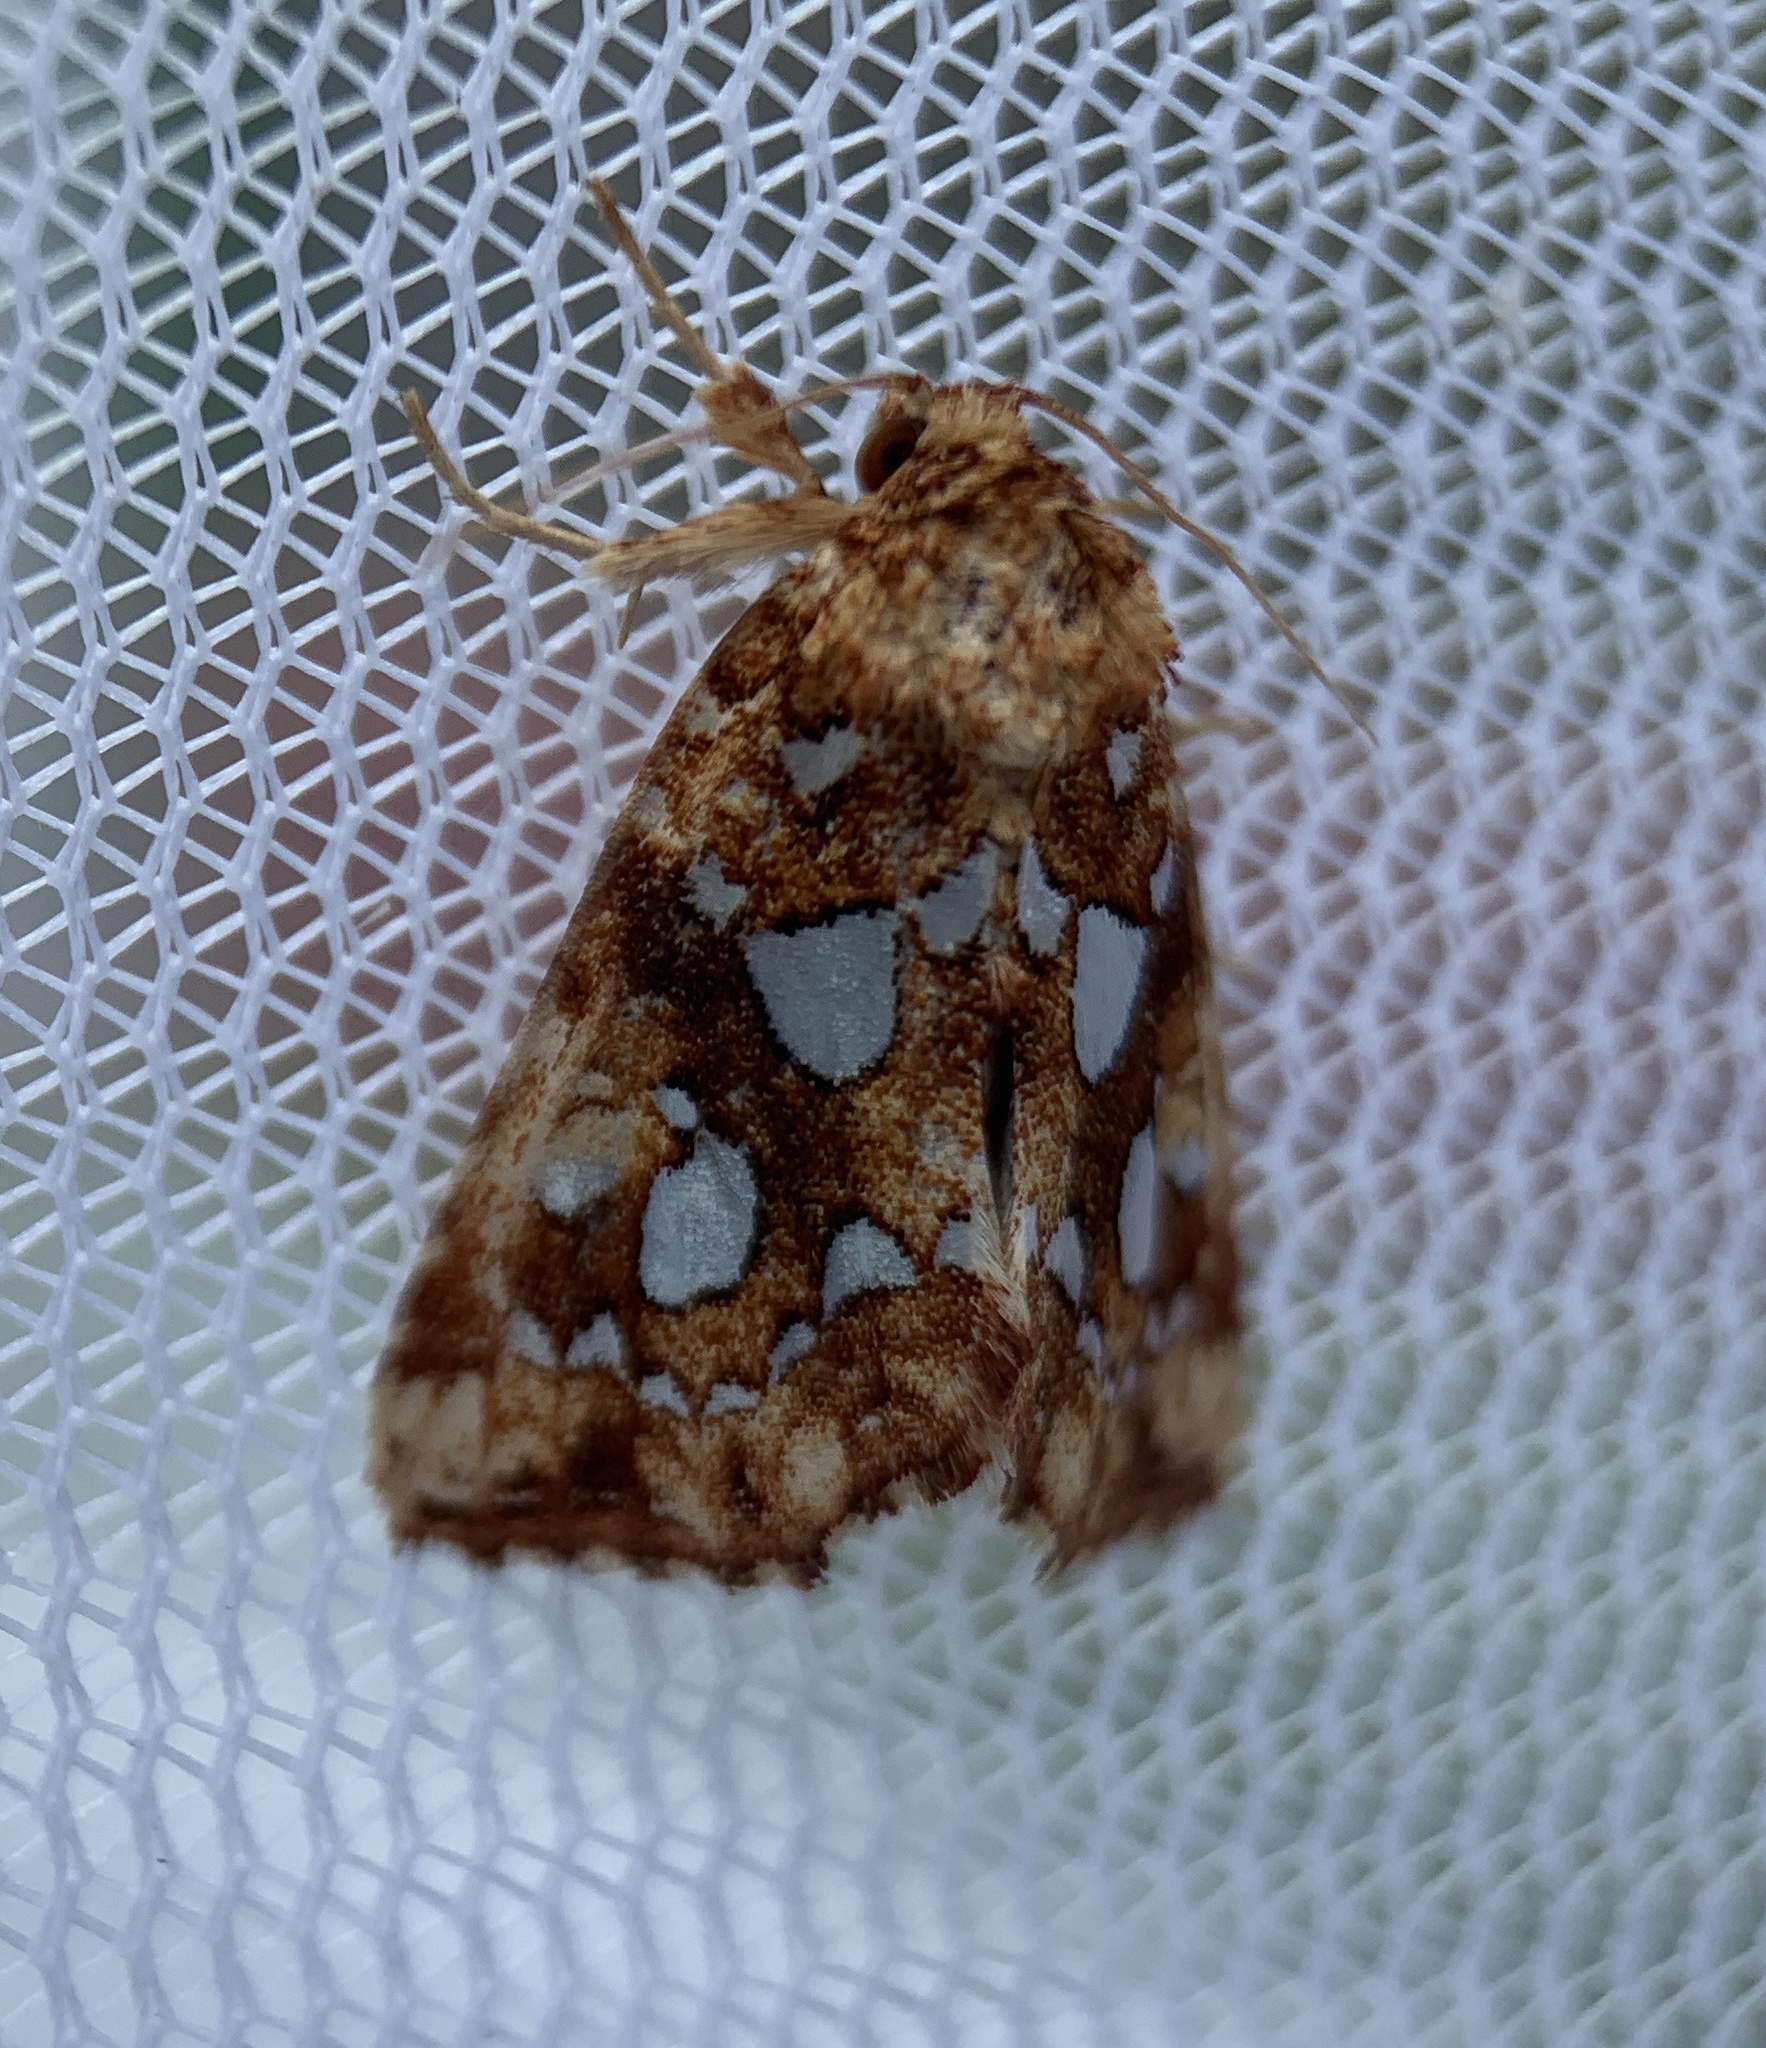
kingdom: Animalia
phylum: Arthropoda
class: Insecta
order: Lepidoptera
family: Noctuidae
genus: Callopistria
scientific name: Callopistria cordata
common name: Silver-spotted fern moth
